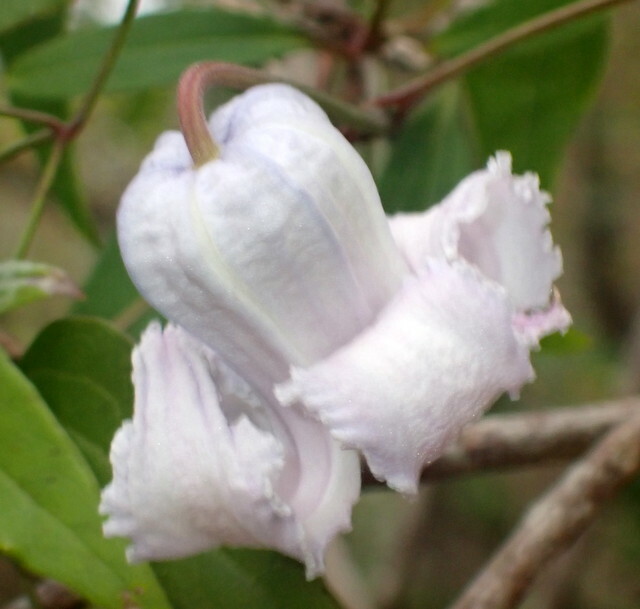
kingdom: Plantae
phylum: Tracheophyta
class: Magnoliopsida
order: Ranunculales
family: Ranunculaceae
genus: Clematis
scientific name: Clematis crispa
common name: Curly clematis
